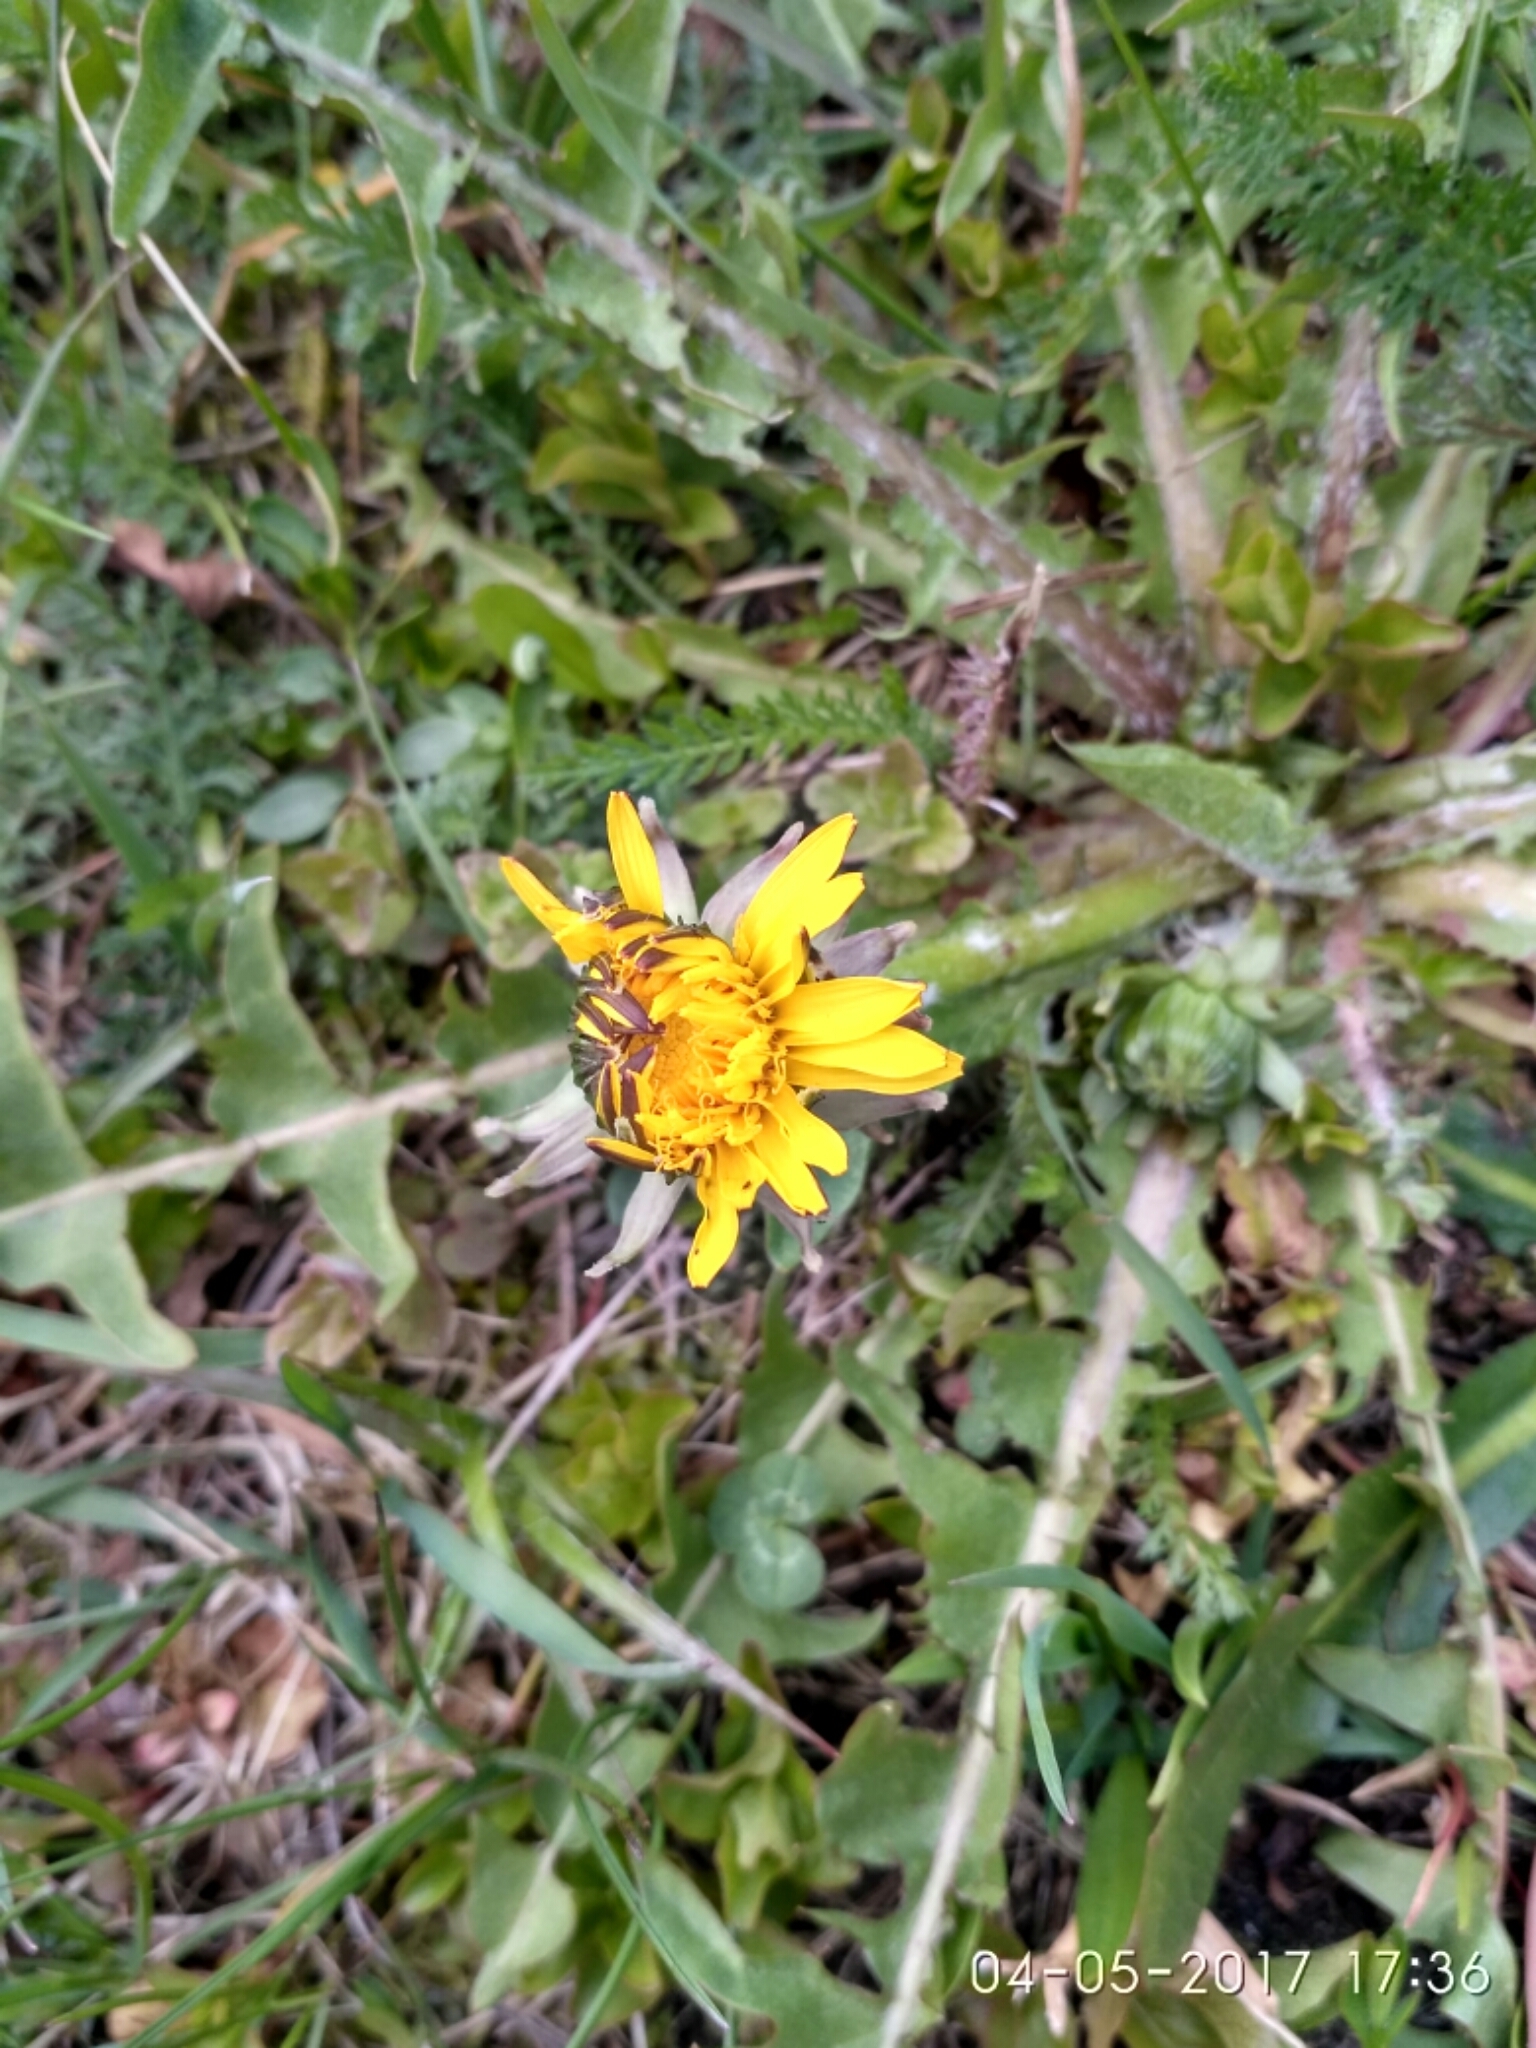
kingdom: Plantae
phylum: Tracheophyta
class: Magnoliopsida
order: Asterales
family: Asteraceae
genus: Taraxacum
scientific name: Taraxacum officinale
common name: Common dandelion
